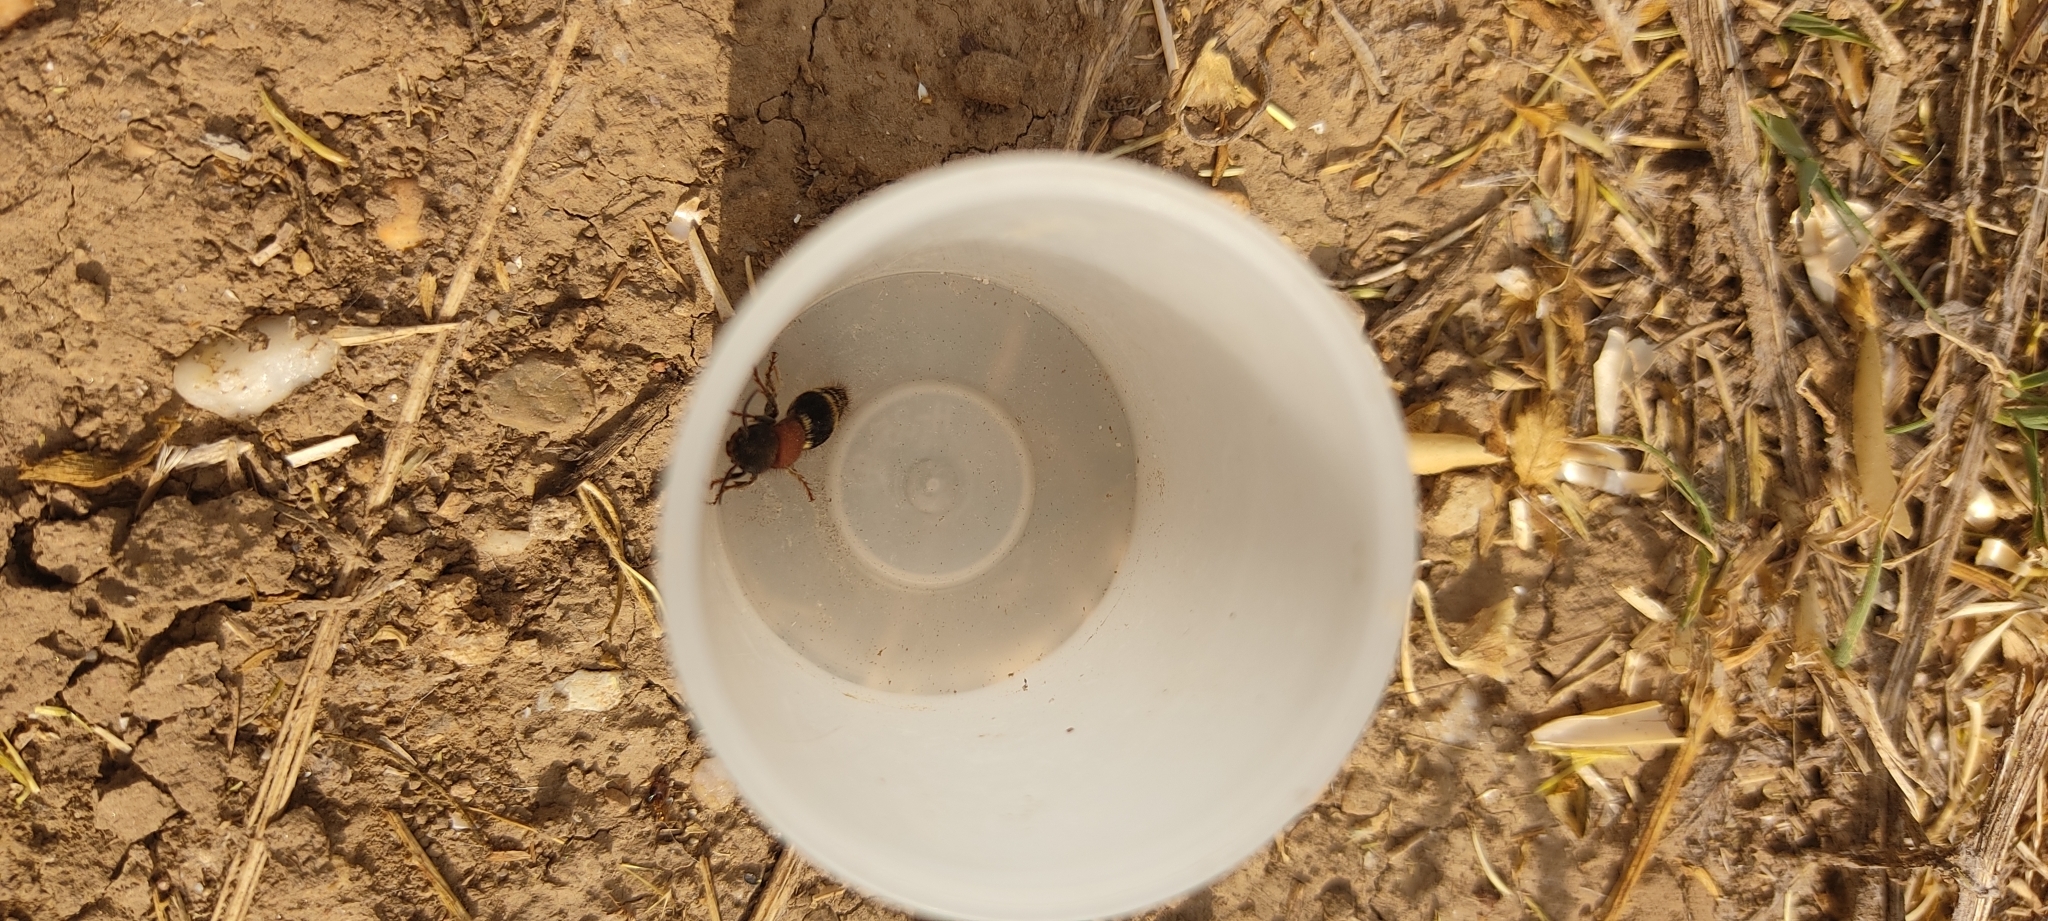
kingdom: Animalia
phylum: Arthropoda
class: Insecta
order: Hymenoptera
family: Mutillidae
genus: Tropidotilla
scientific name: Tropidotilla litoralis
